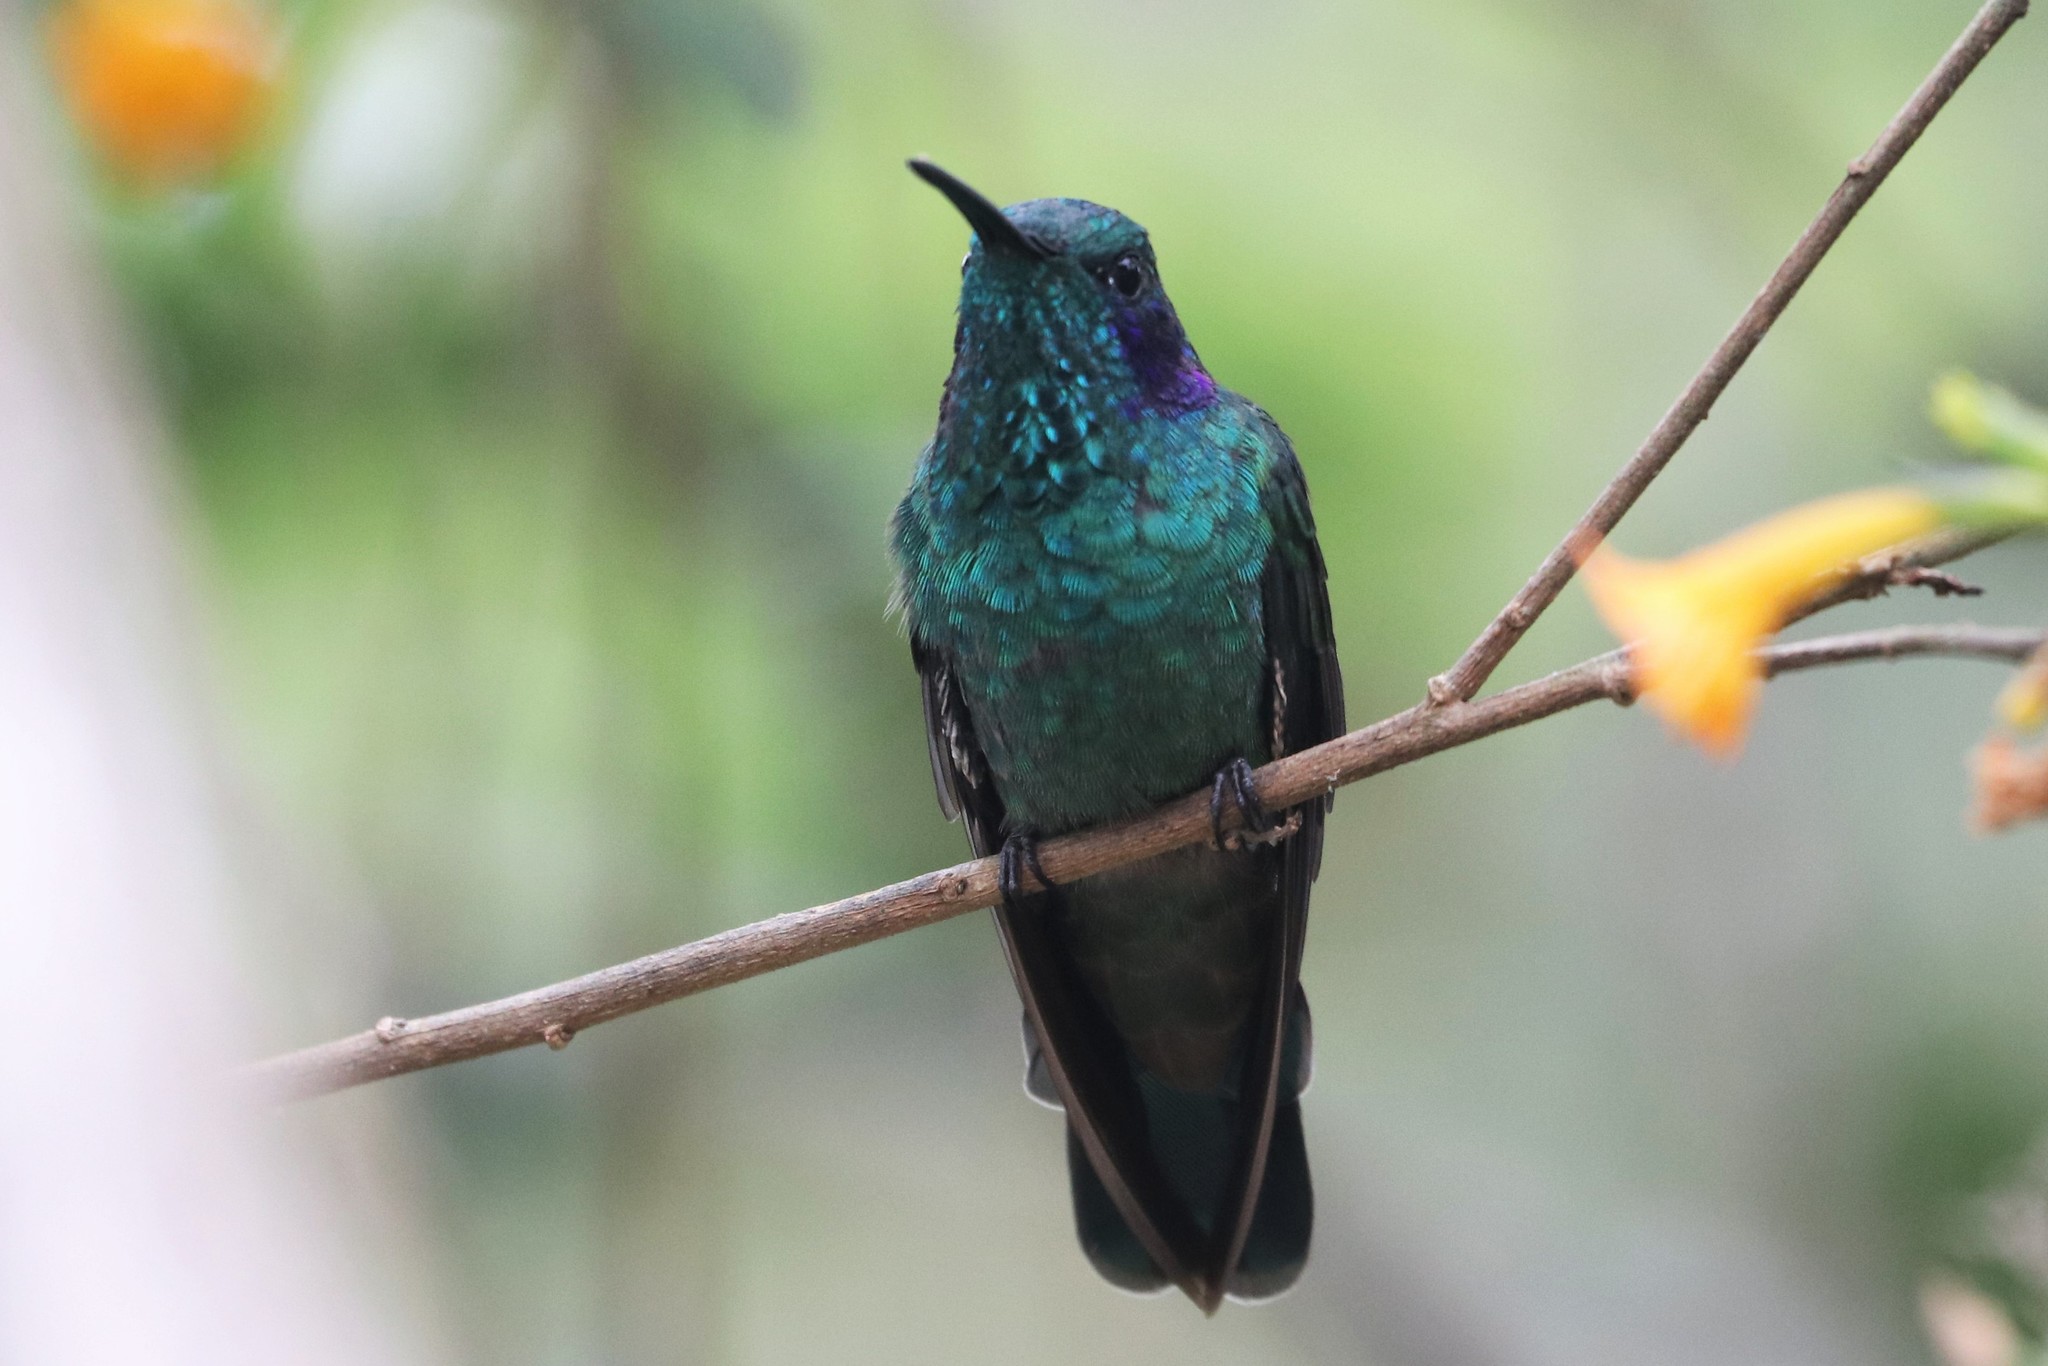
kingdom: Animalia
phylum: Chordata
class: Aves
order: Apodiformes
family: Trochilidae
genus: Colibri
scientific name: Colibri cyanotus
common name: Lesser violetear
